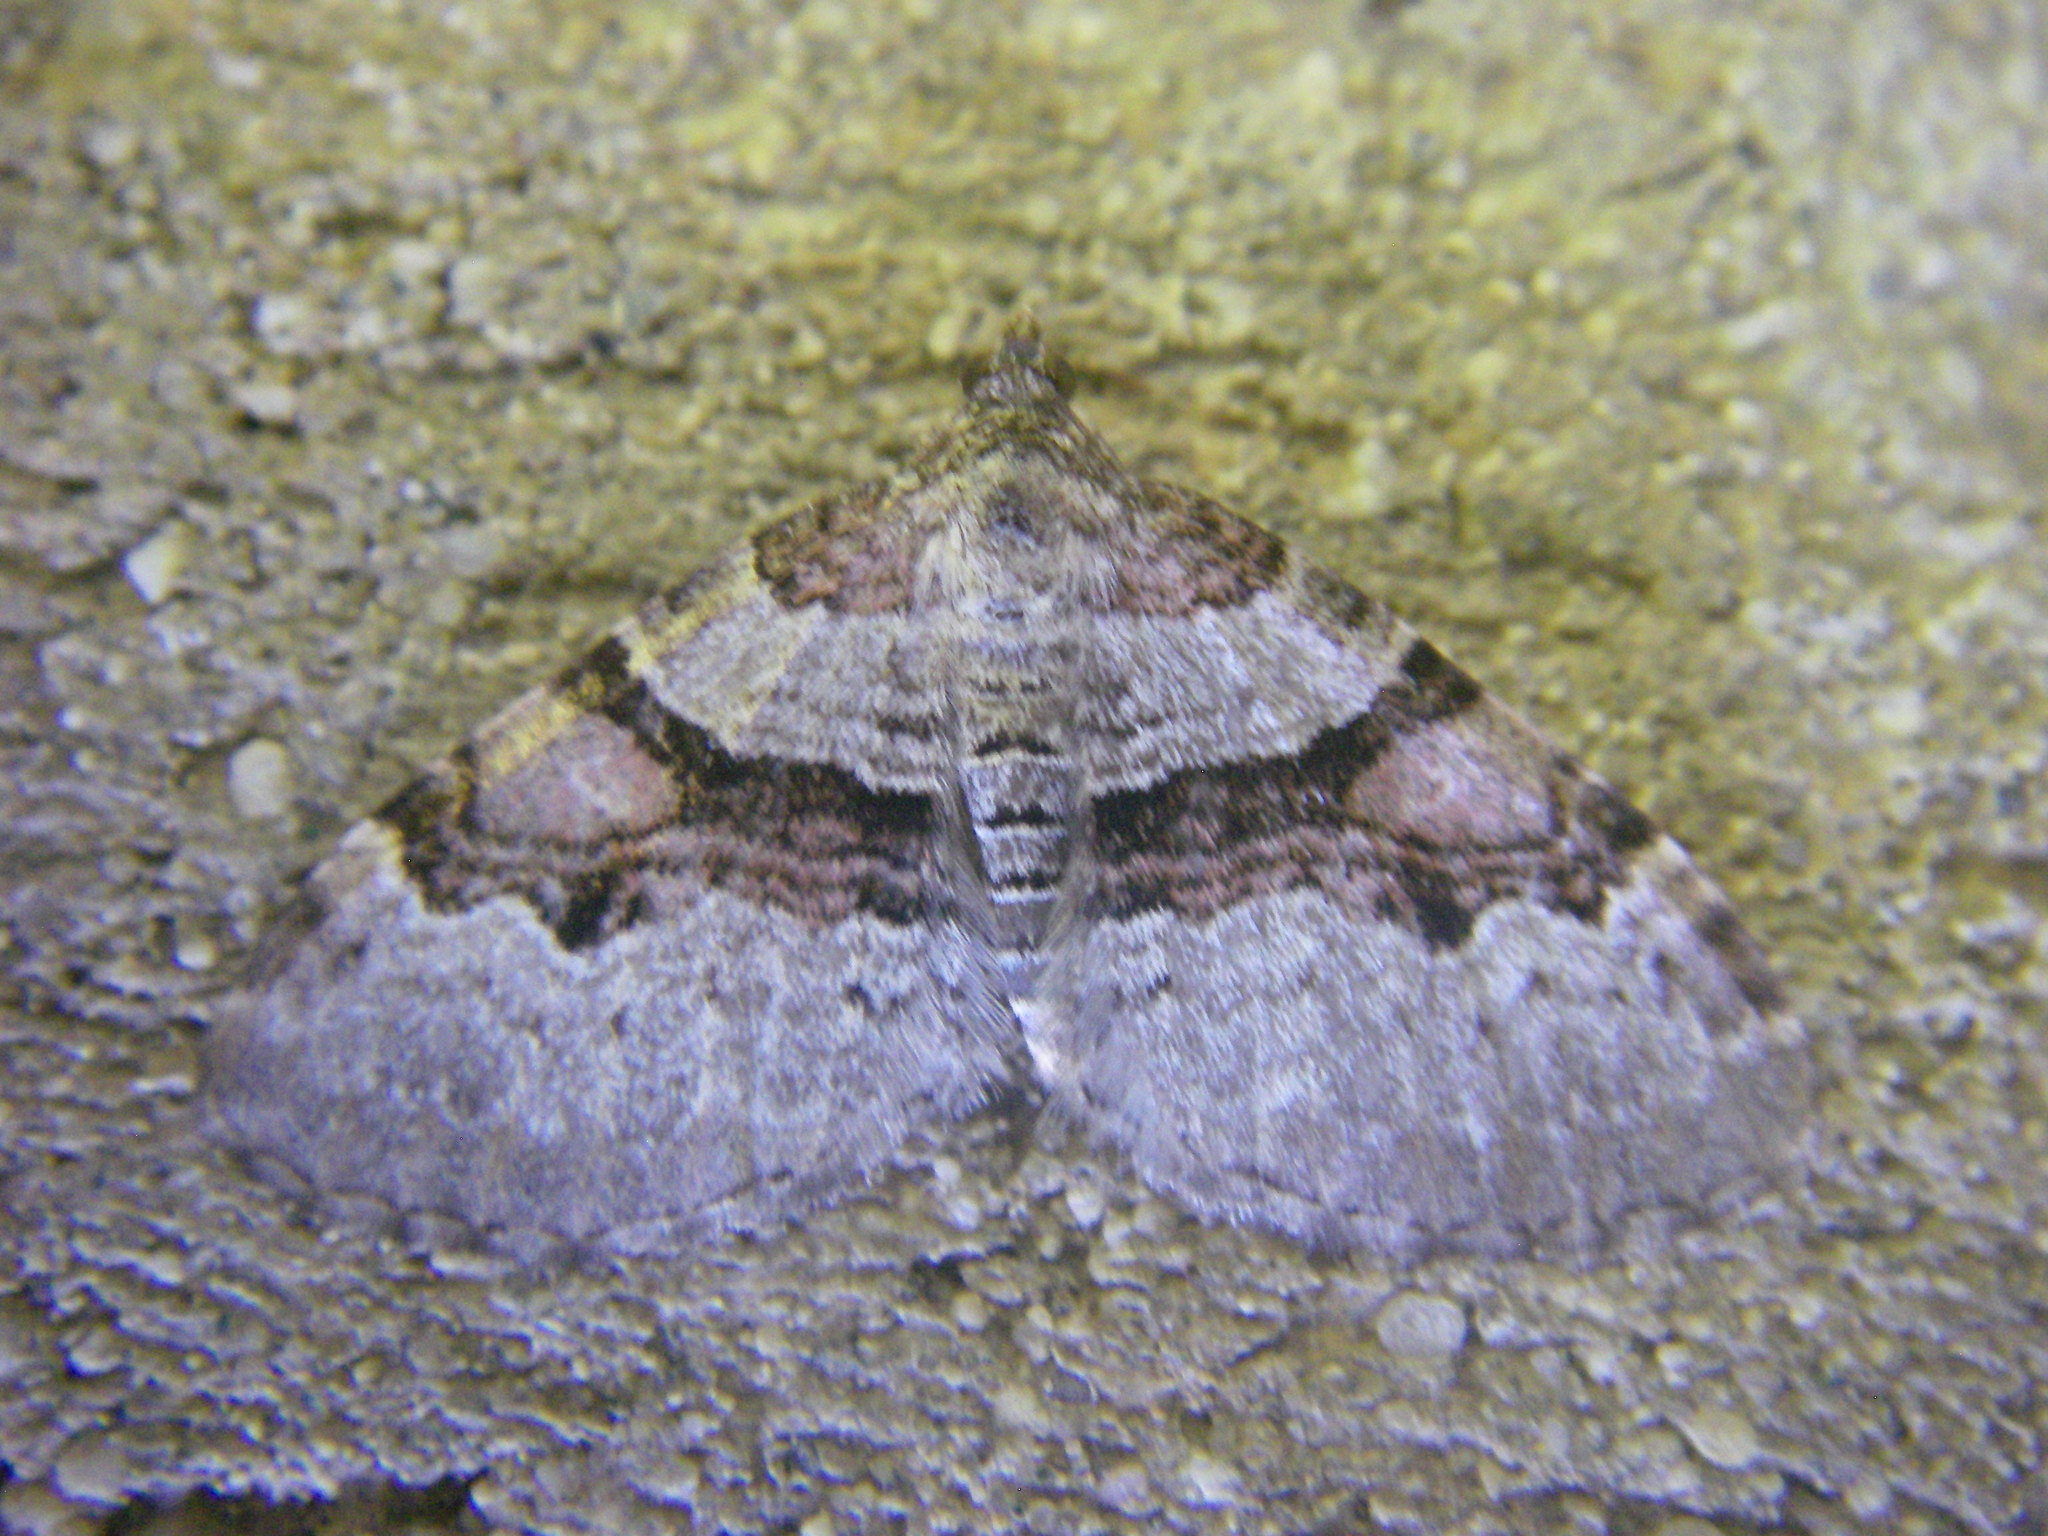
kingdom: Animalia
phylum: Arthropoda
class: Insecta
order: Lepidoptera
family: Geometridae
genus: Xanthorhoe
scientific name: Xanthorhoe designata
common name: Flame carpet
